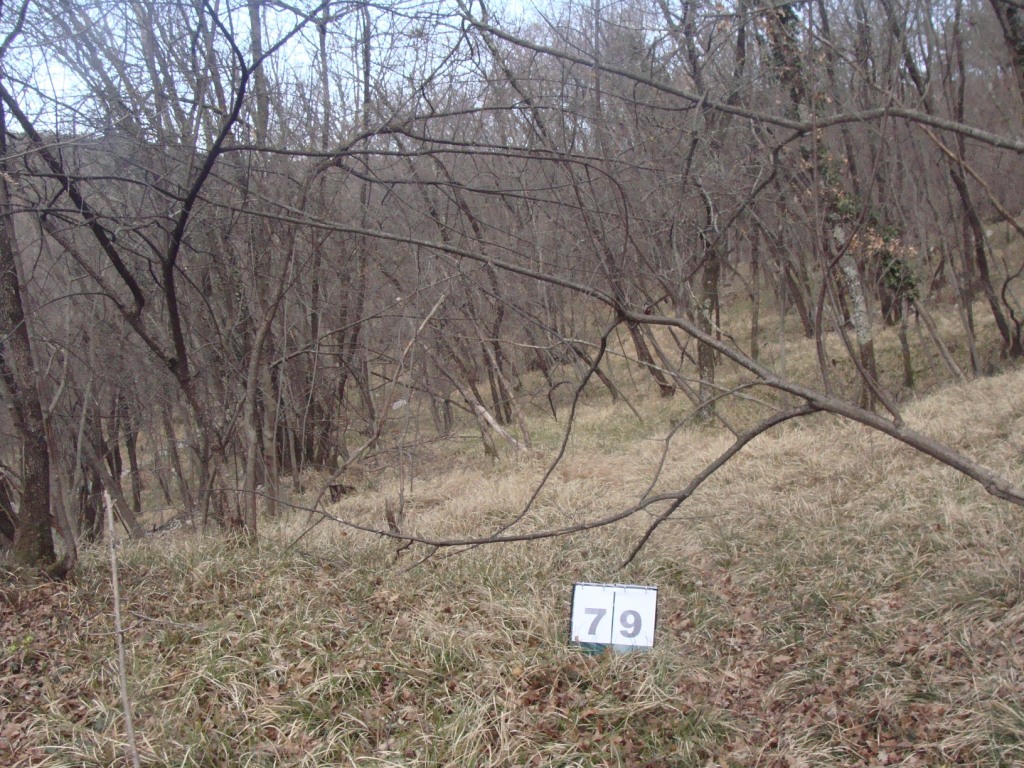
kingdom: Plantae
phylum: Tracheophyta
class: Magnoliopsida
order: Cornales
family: Cornaceae
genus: Cornus
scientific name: Cornus mas
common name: Cornelian-cherry
